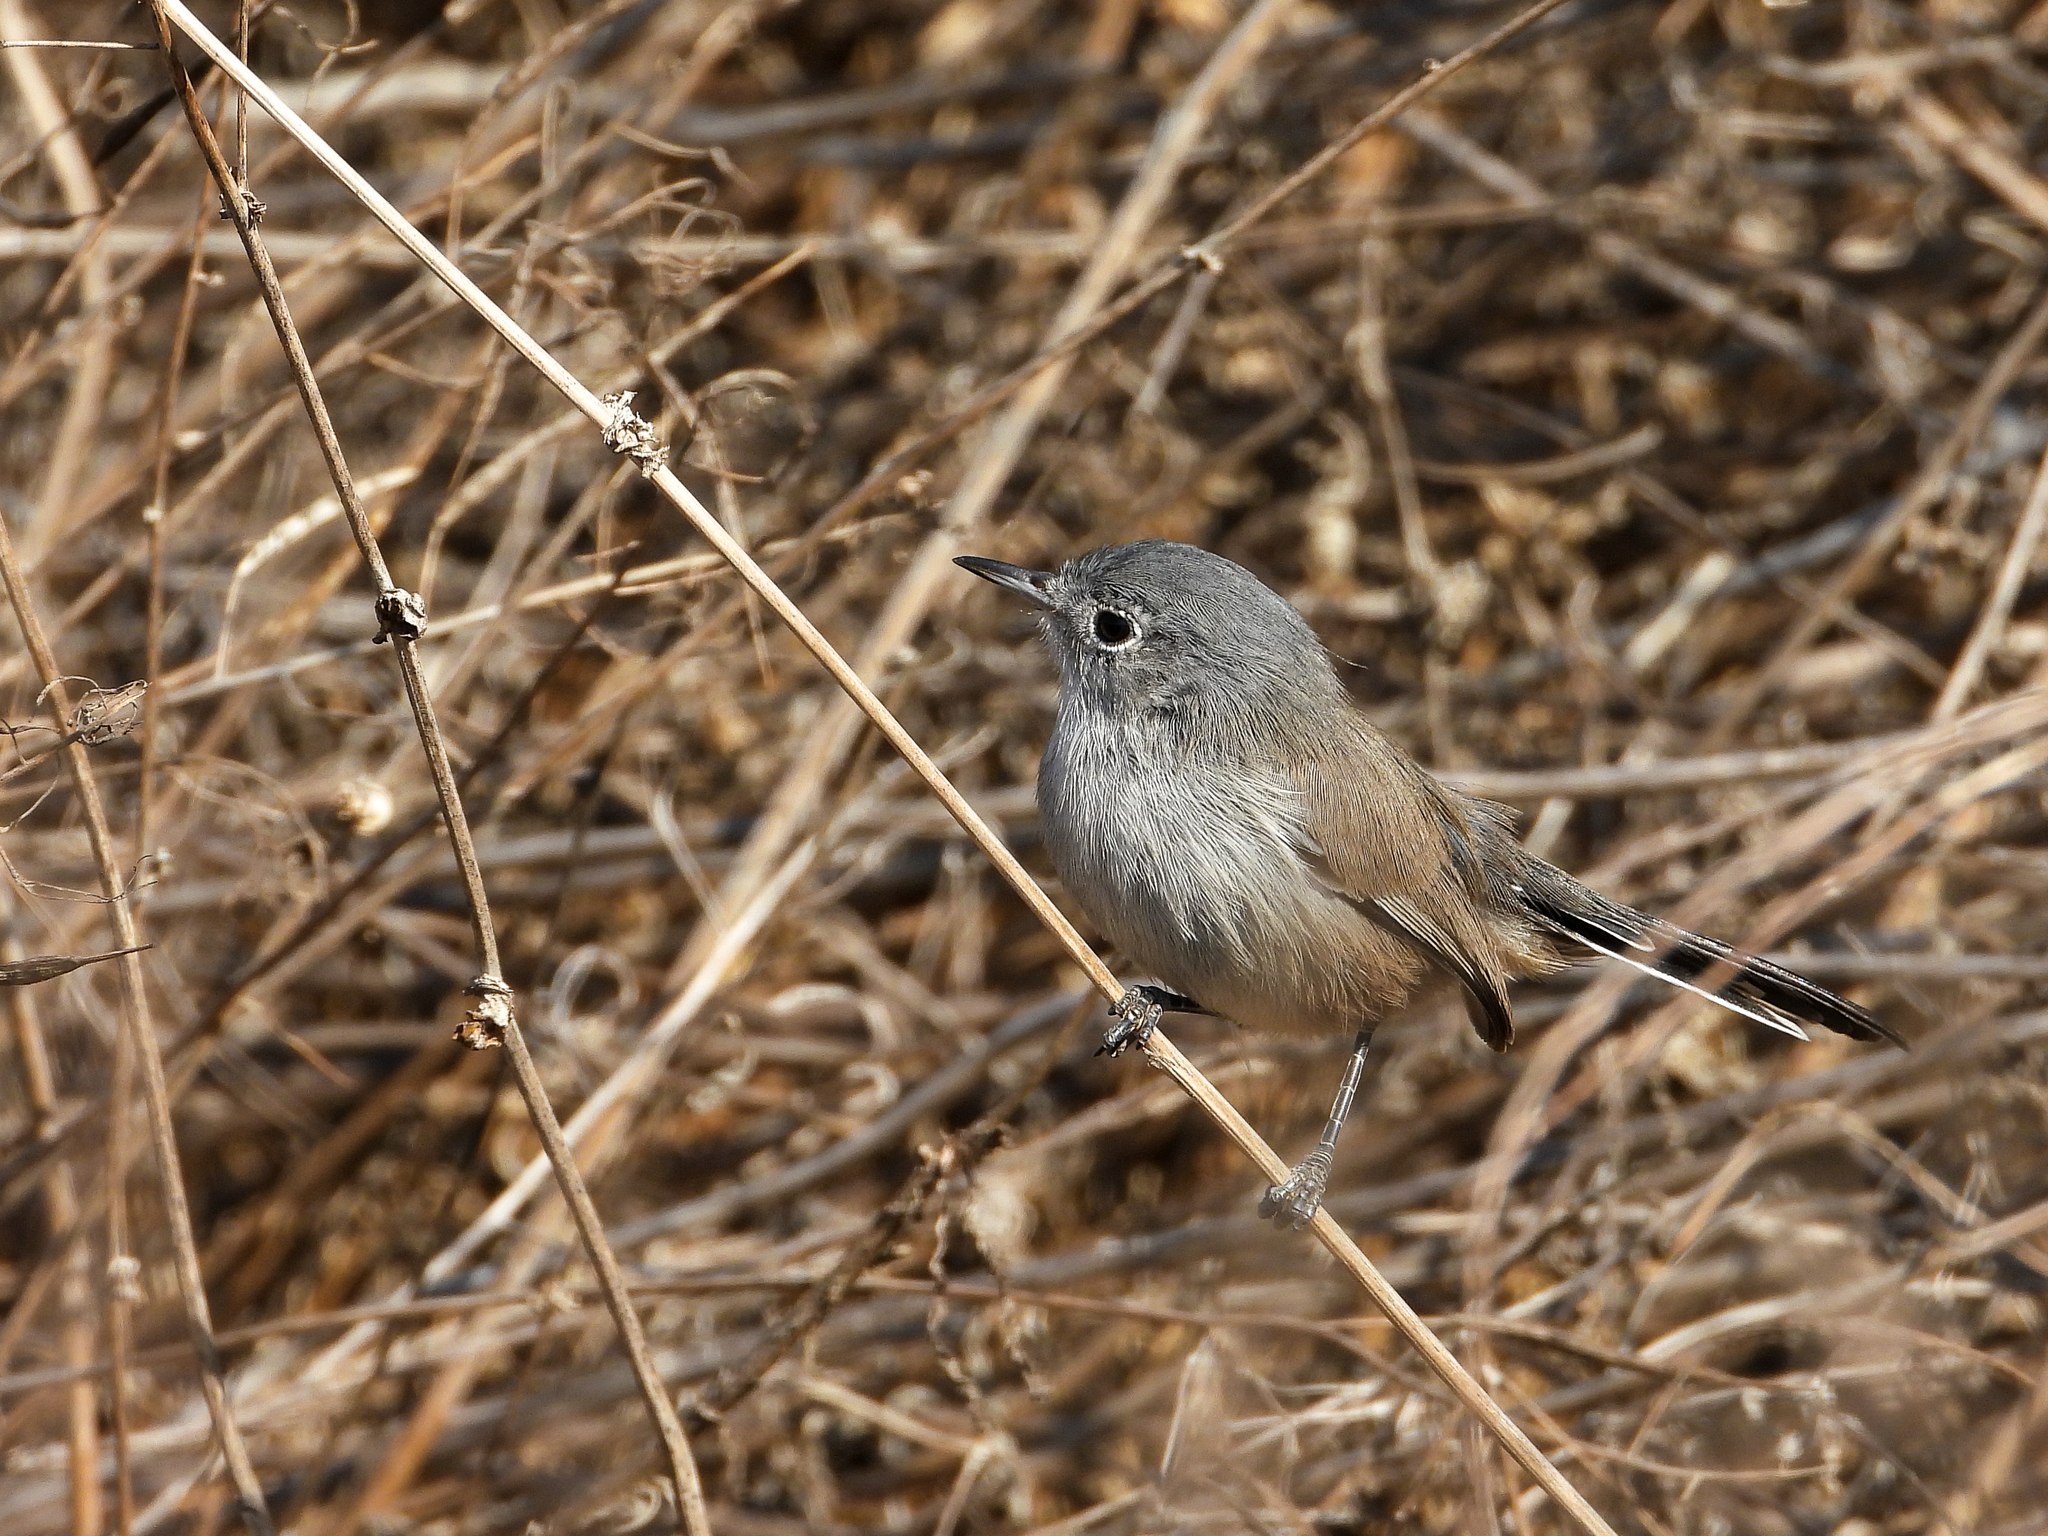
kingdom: Animalia
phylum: Chordata
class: Aves
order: Passeriformes
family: Polioptilidae
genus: Polioptila
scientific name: Polioptila californica
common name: California gnatcatcher
